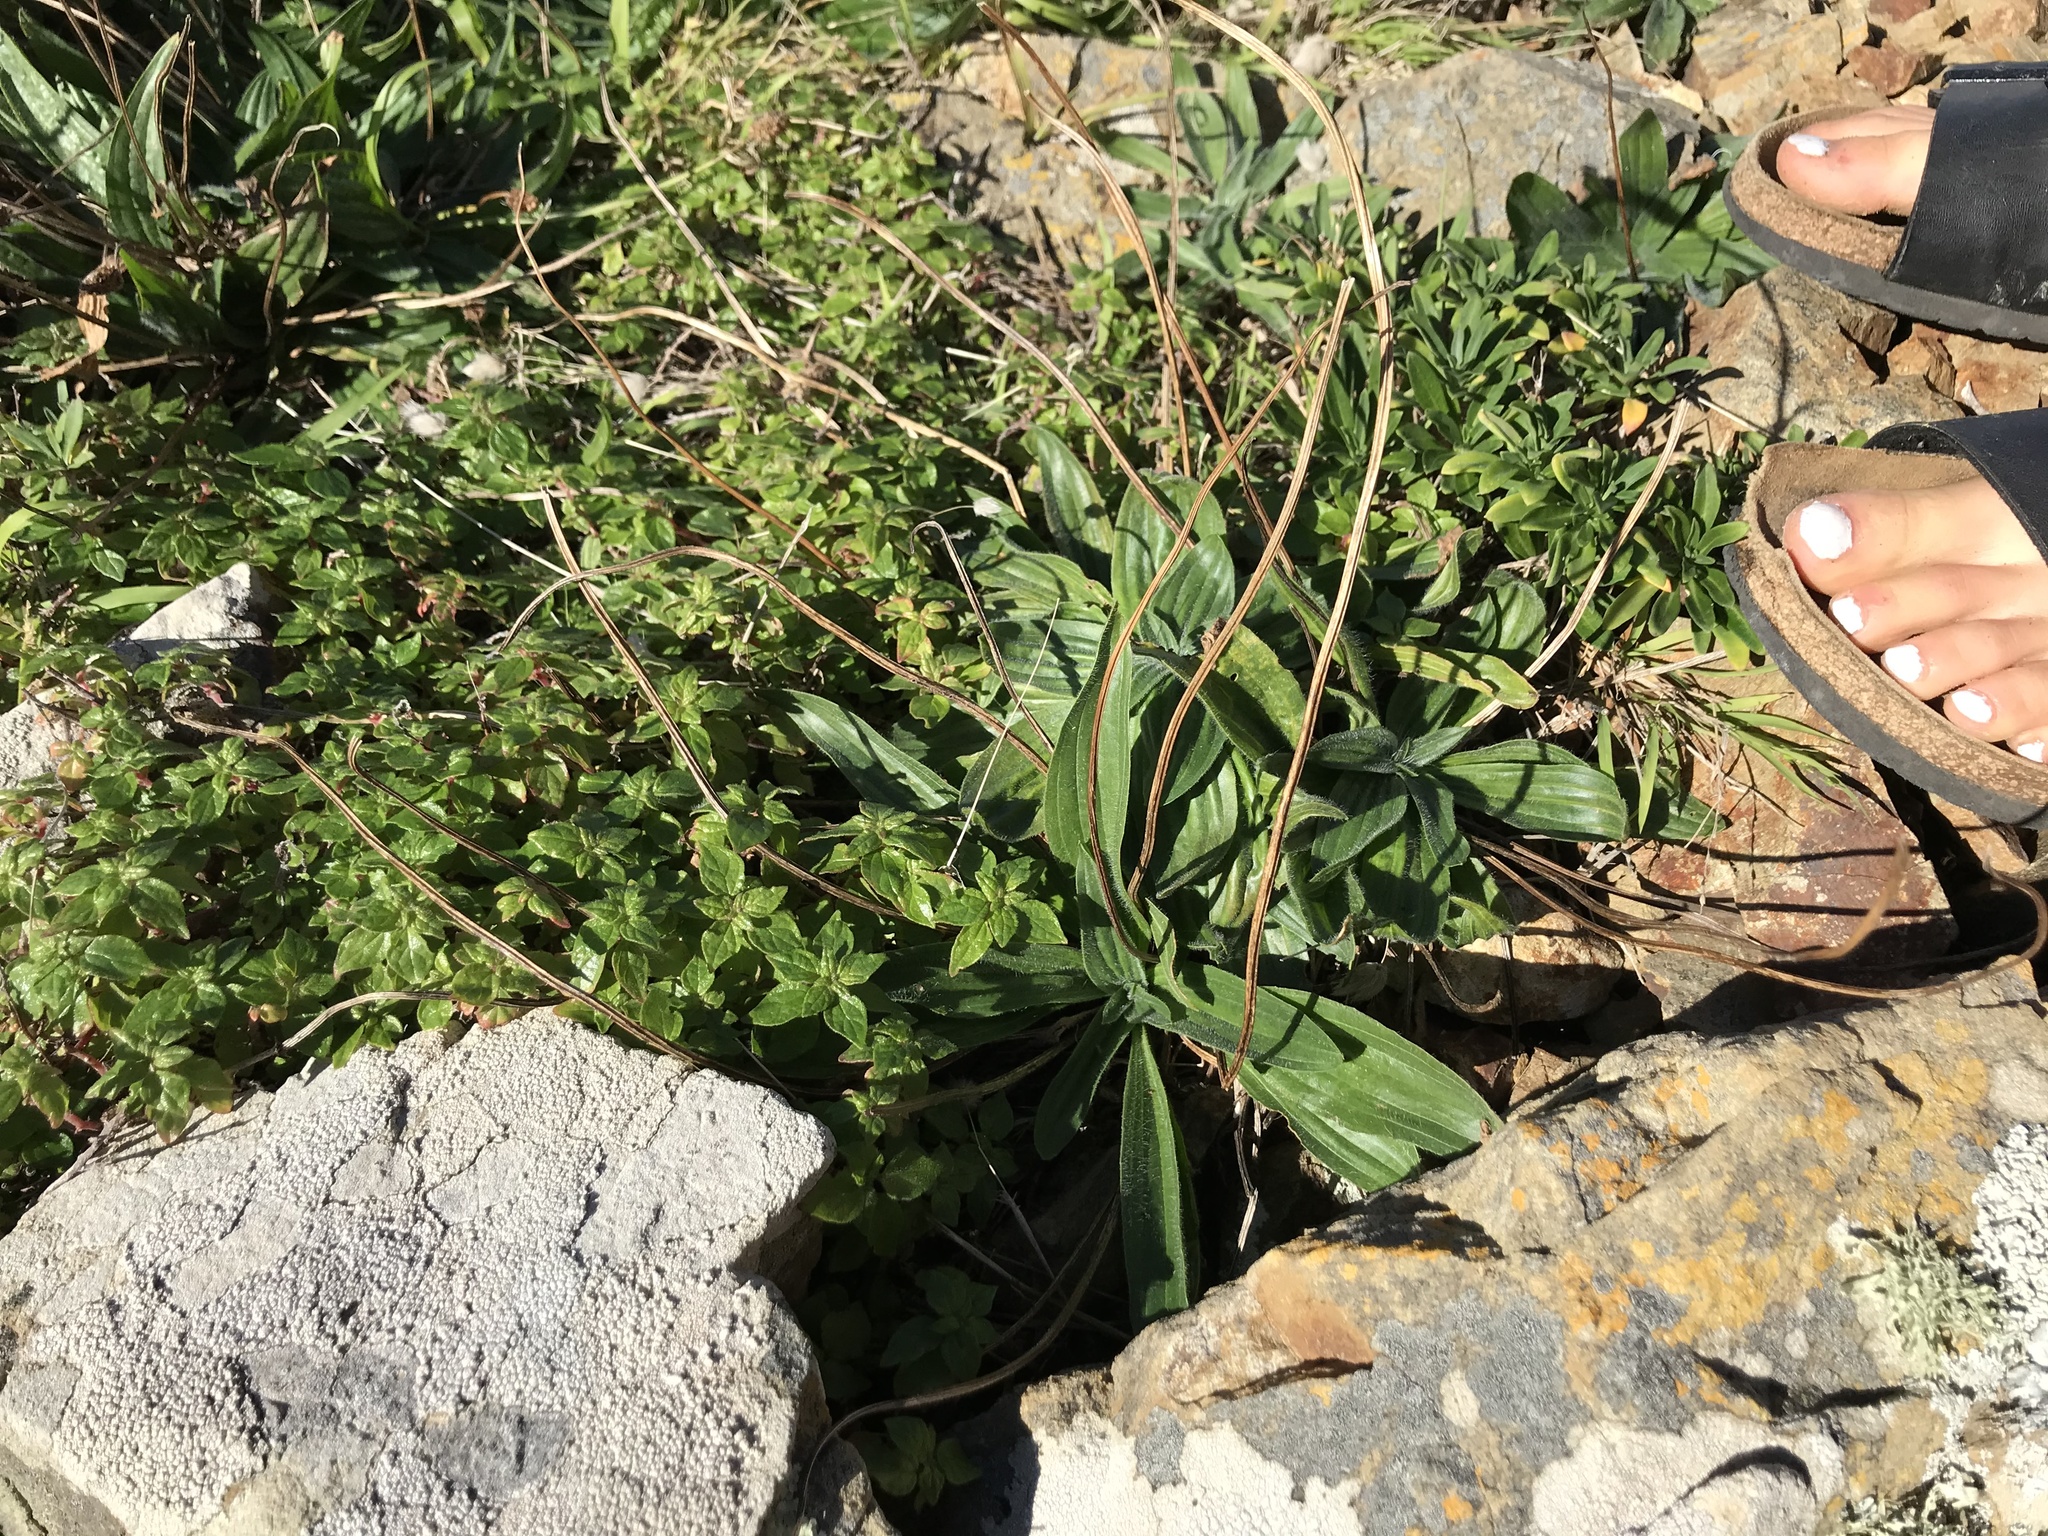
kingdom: Plantae
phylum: Tracheophyta
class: Magnoliopsida
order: Lamiales
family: Plantaginaceae
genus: Plantago
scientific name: Plantago lanceolata
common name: Ribwort plantain
